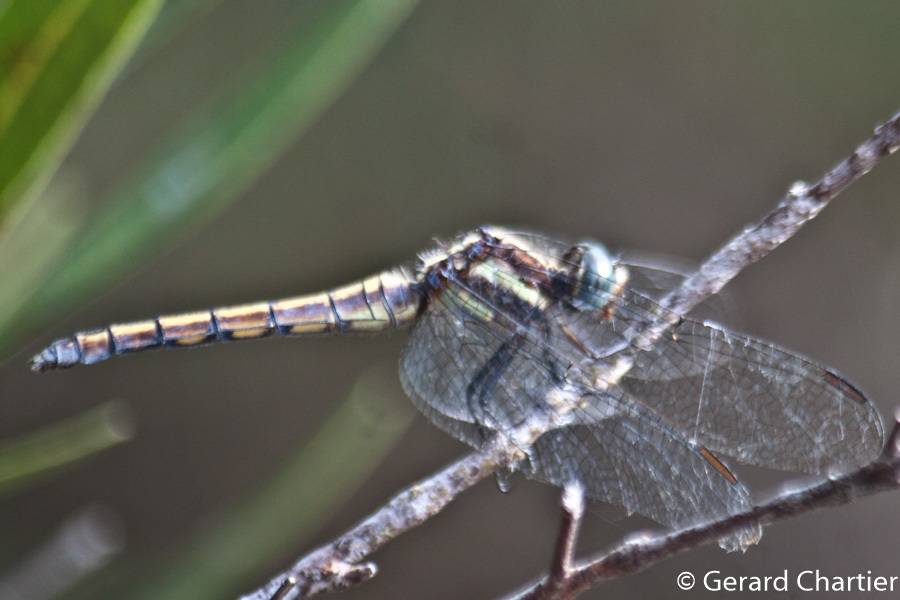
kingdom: Animalia
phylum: Arthropoda
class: Insecta
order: Odonata
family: Libellulidae
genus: Orthetrum
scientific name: Orthetrum glaucum
